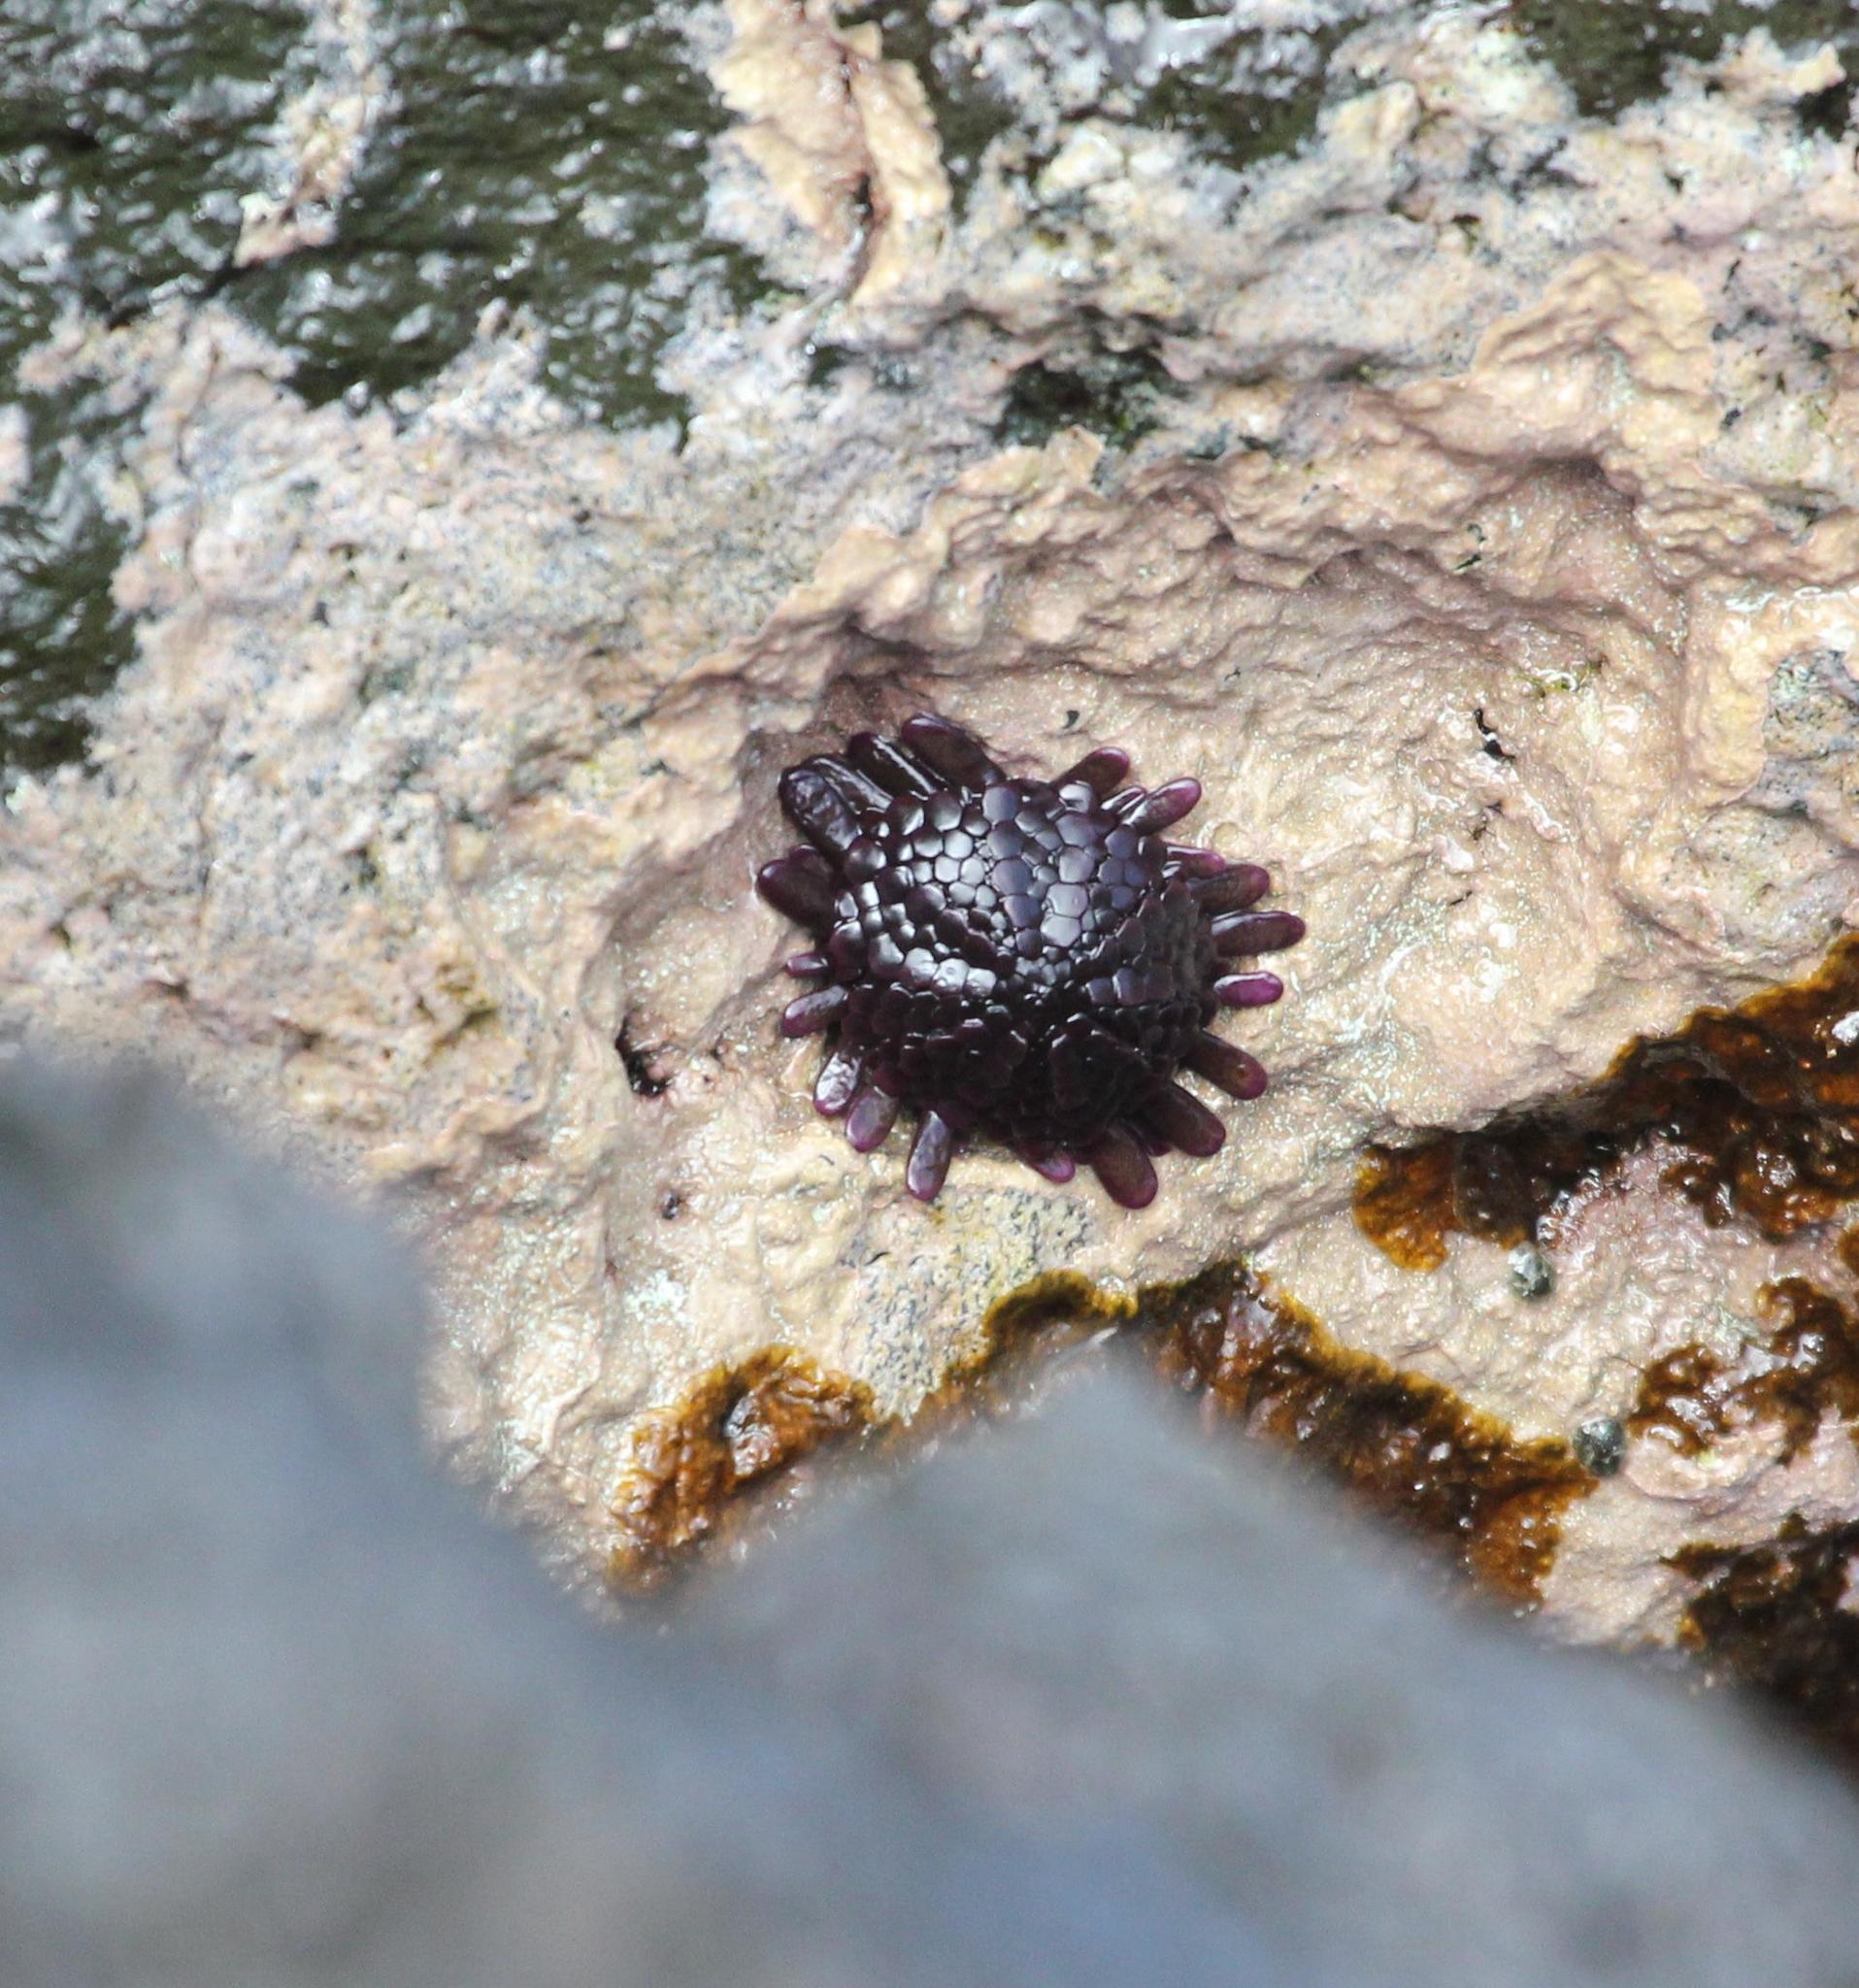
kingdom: Animalia
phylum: Echinodermata
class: Echinoidea
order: Camarodonta
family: Echinometridae
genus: Colobocentrotus
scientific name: Colobocentrotus atratus
